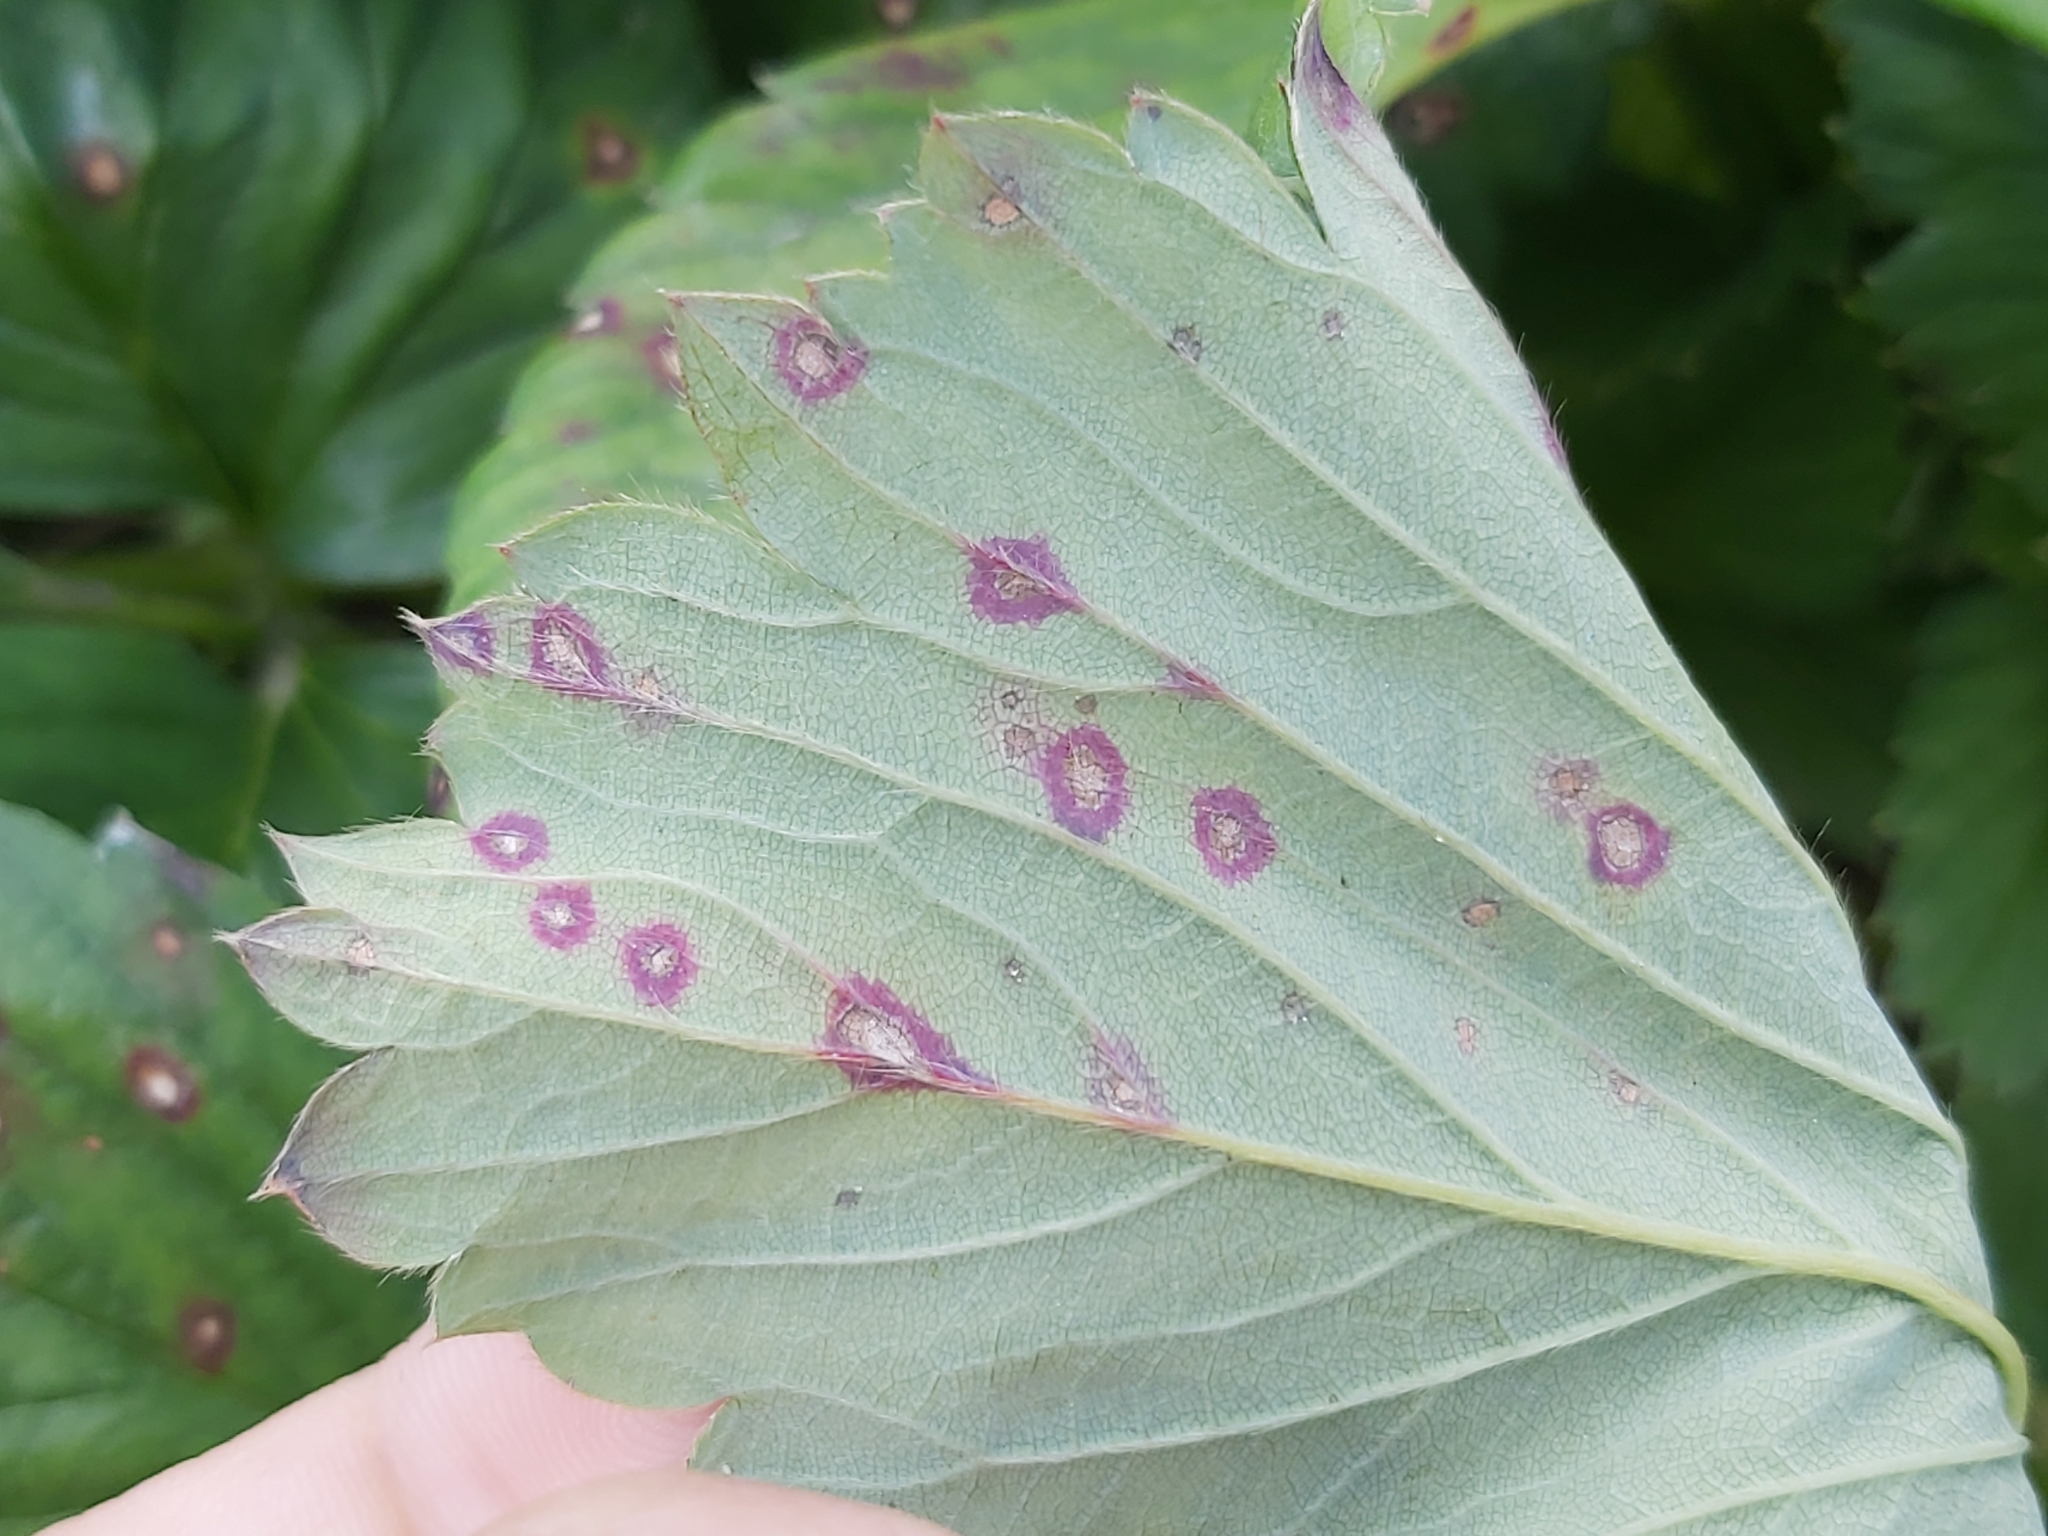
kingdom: Fungi
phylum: Ascomycota
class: Dothideomycetes
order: Mycosphaerellales
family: Mycosphaerellaceae
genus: Ramularia
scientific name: Ramularia grevilleana
